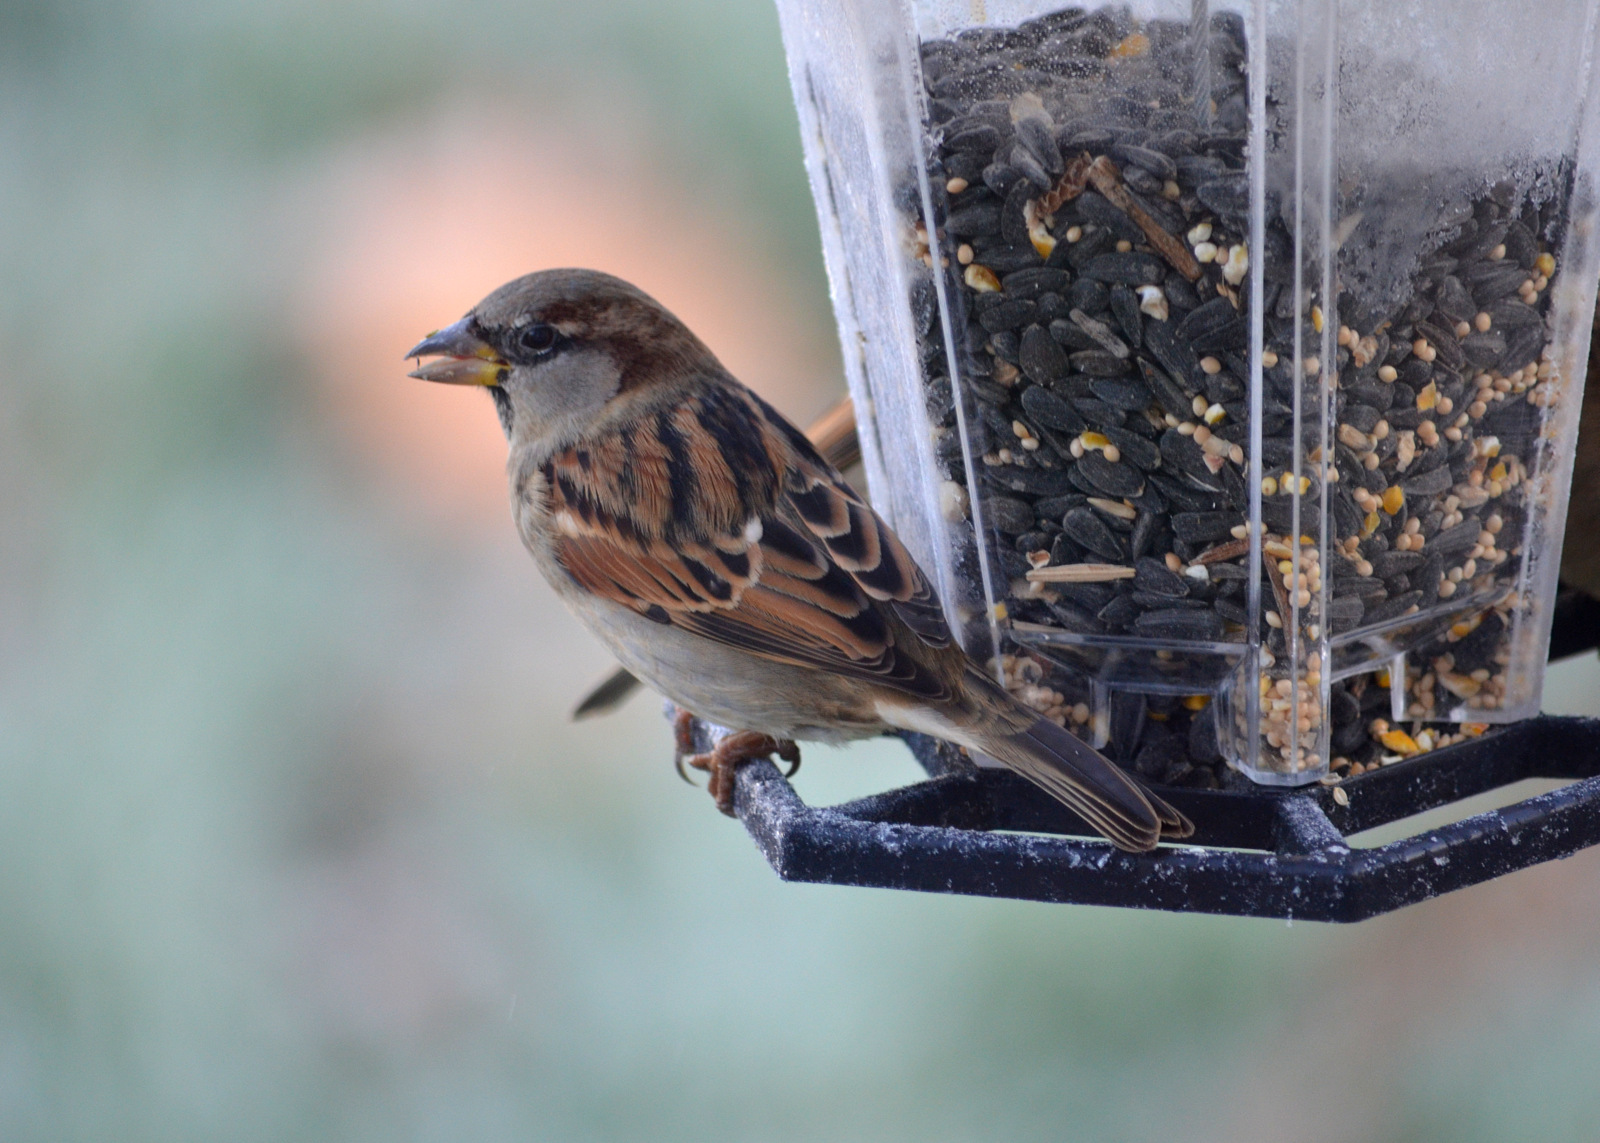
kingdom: Animalia
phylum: Chordata
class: Aves
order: Passeriformes
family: Passeridae
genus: Passer
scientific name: Passer domesticus
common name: House sparrow
